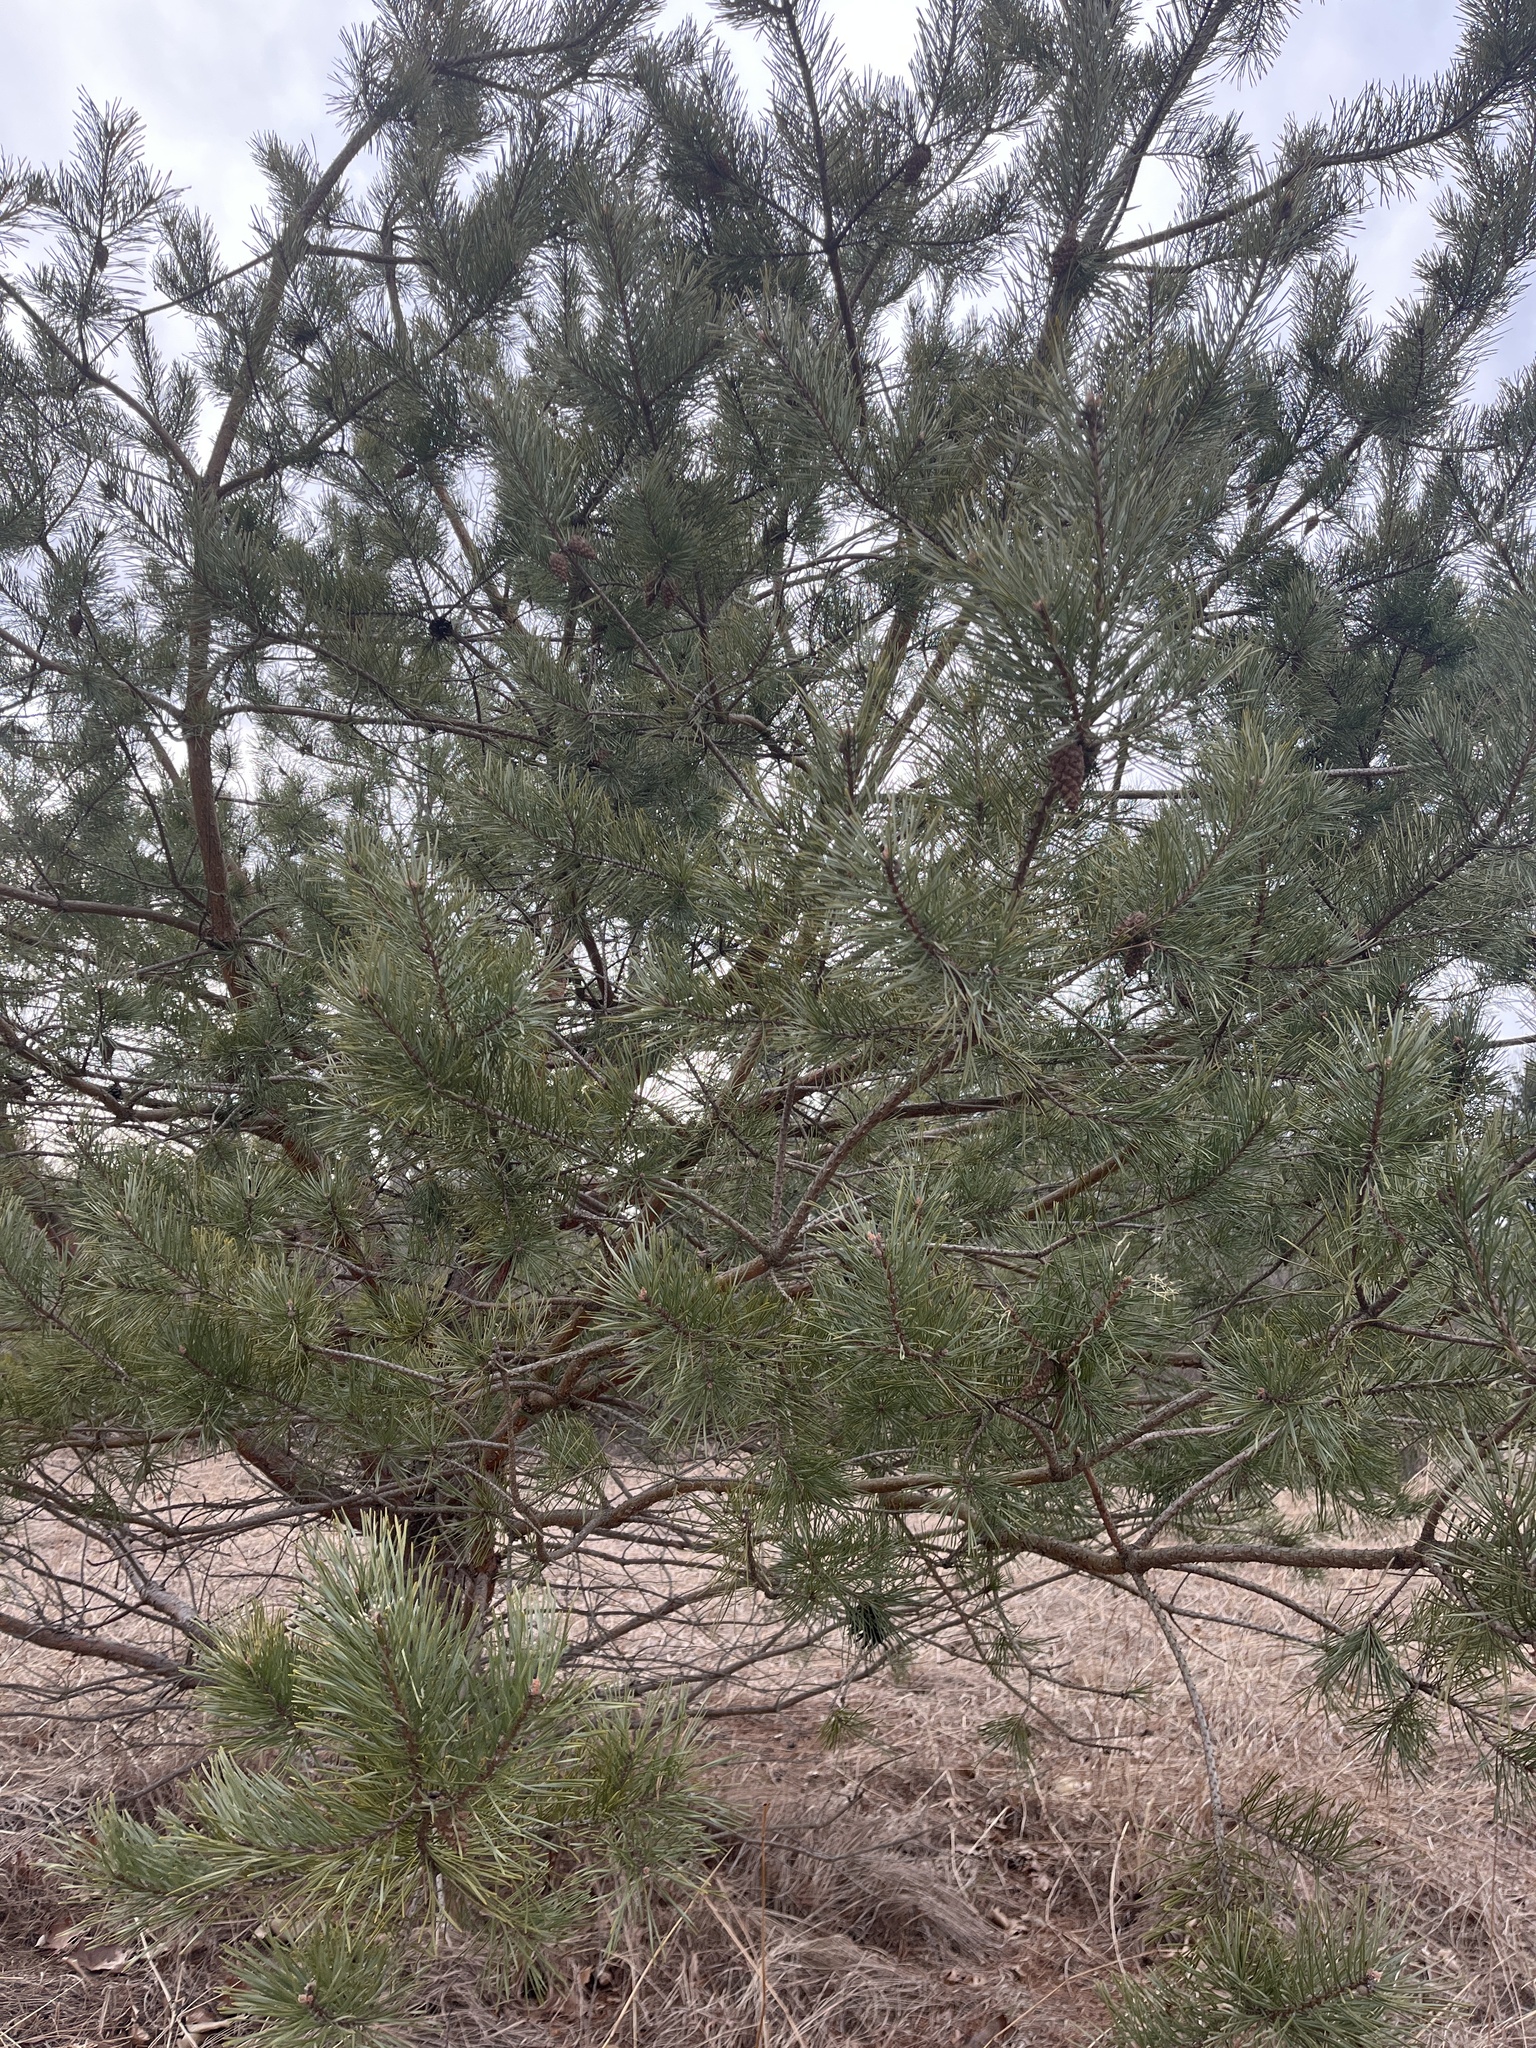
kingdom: Plantae
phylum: Tracheophyta
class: Pinopsida
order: Pinales
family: Pinaceae
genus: Pinus
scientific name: Pinus sylvestris
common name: Scots pine
